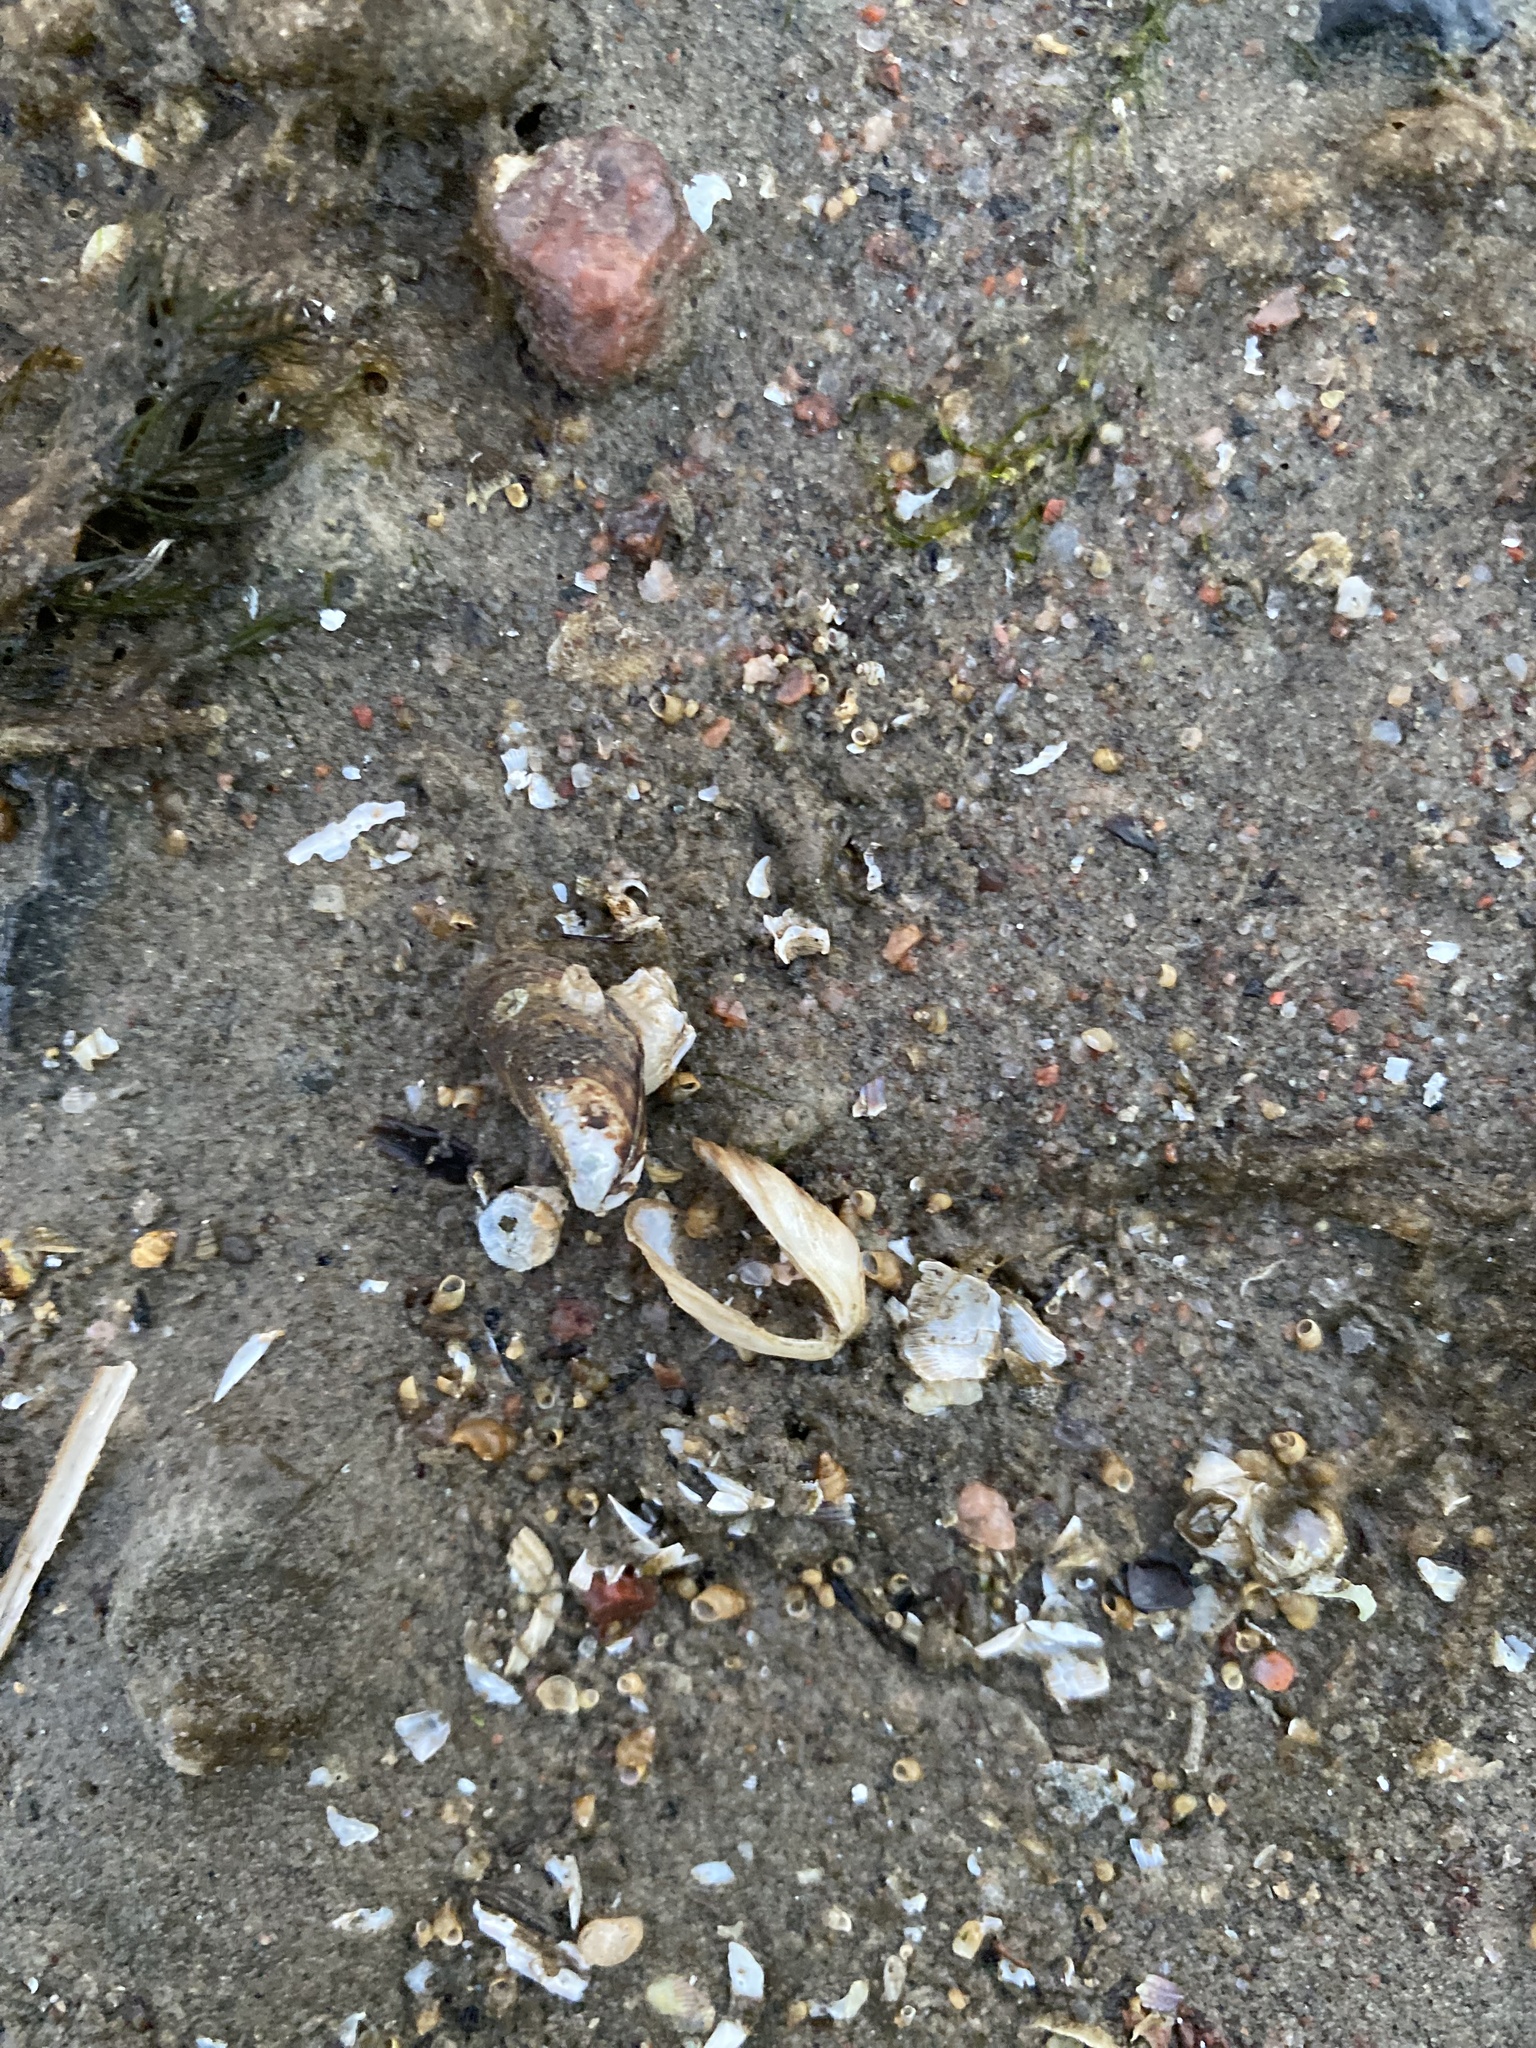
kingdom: Animalia
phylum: Mollusca
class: Bivalvia
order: Myida
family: Dreissenidae
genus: Mytilopsis
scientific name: Mytilopsis leucophaeata
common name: Conrad's false mussel
